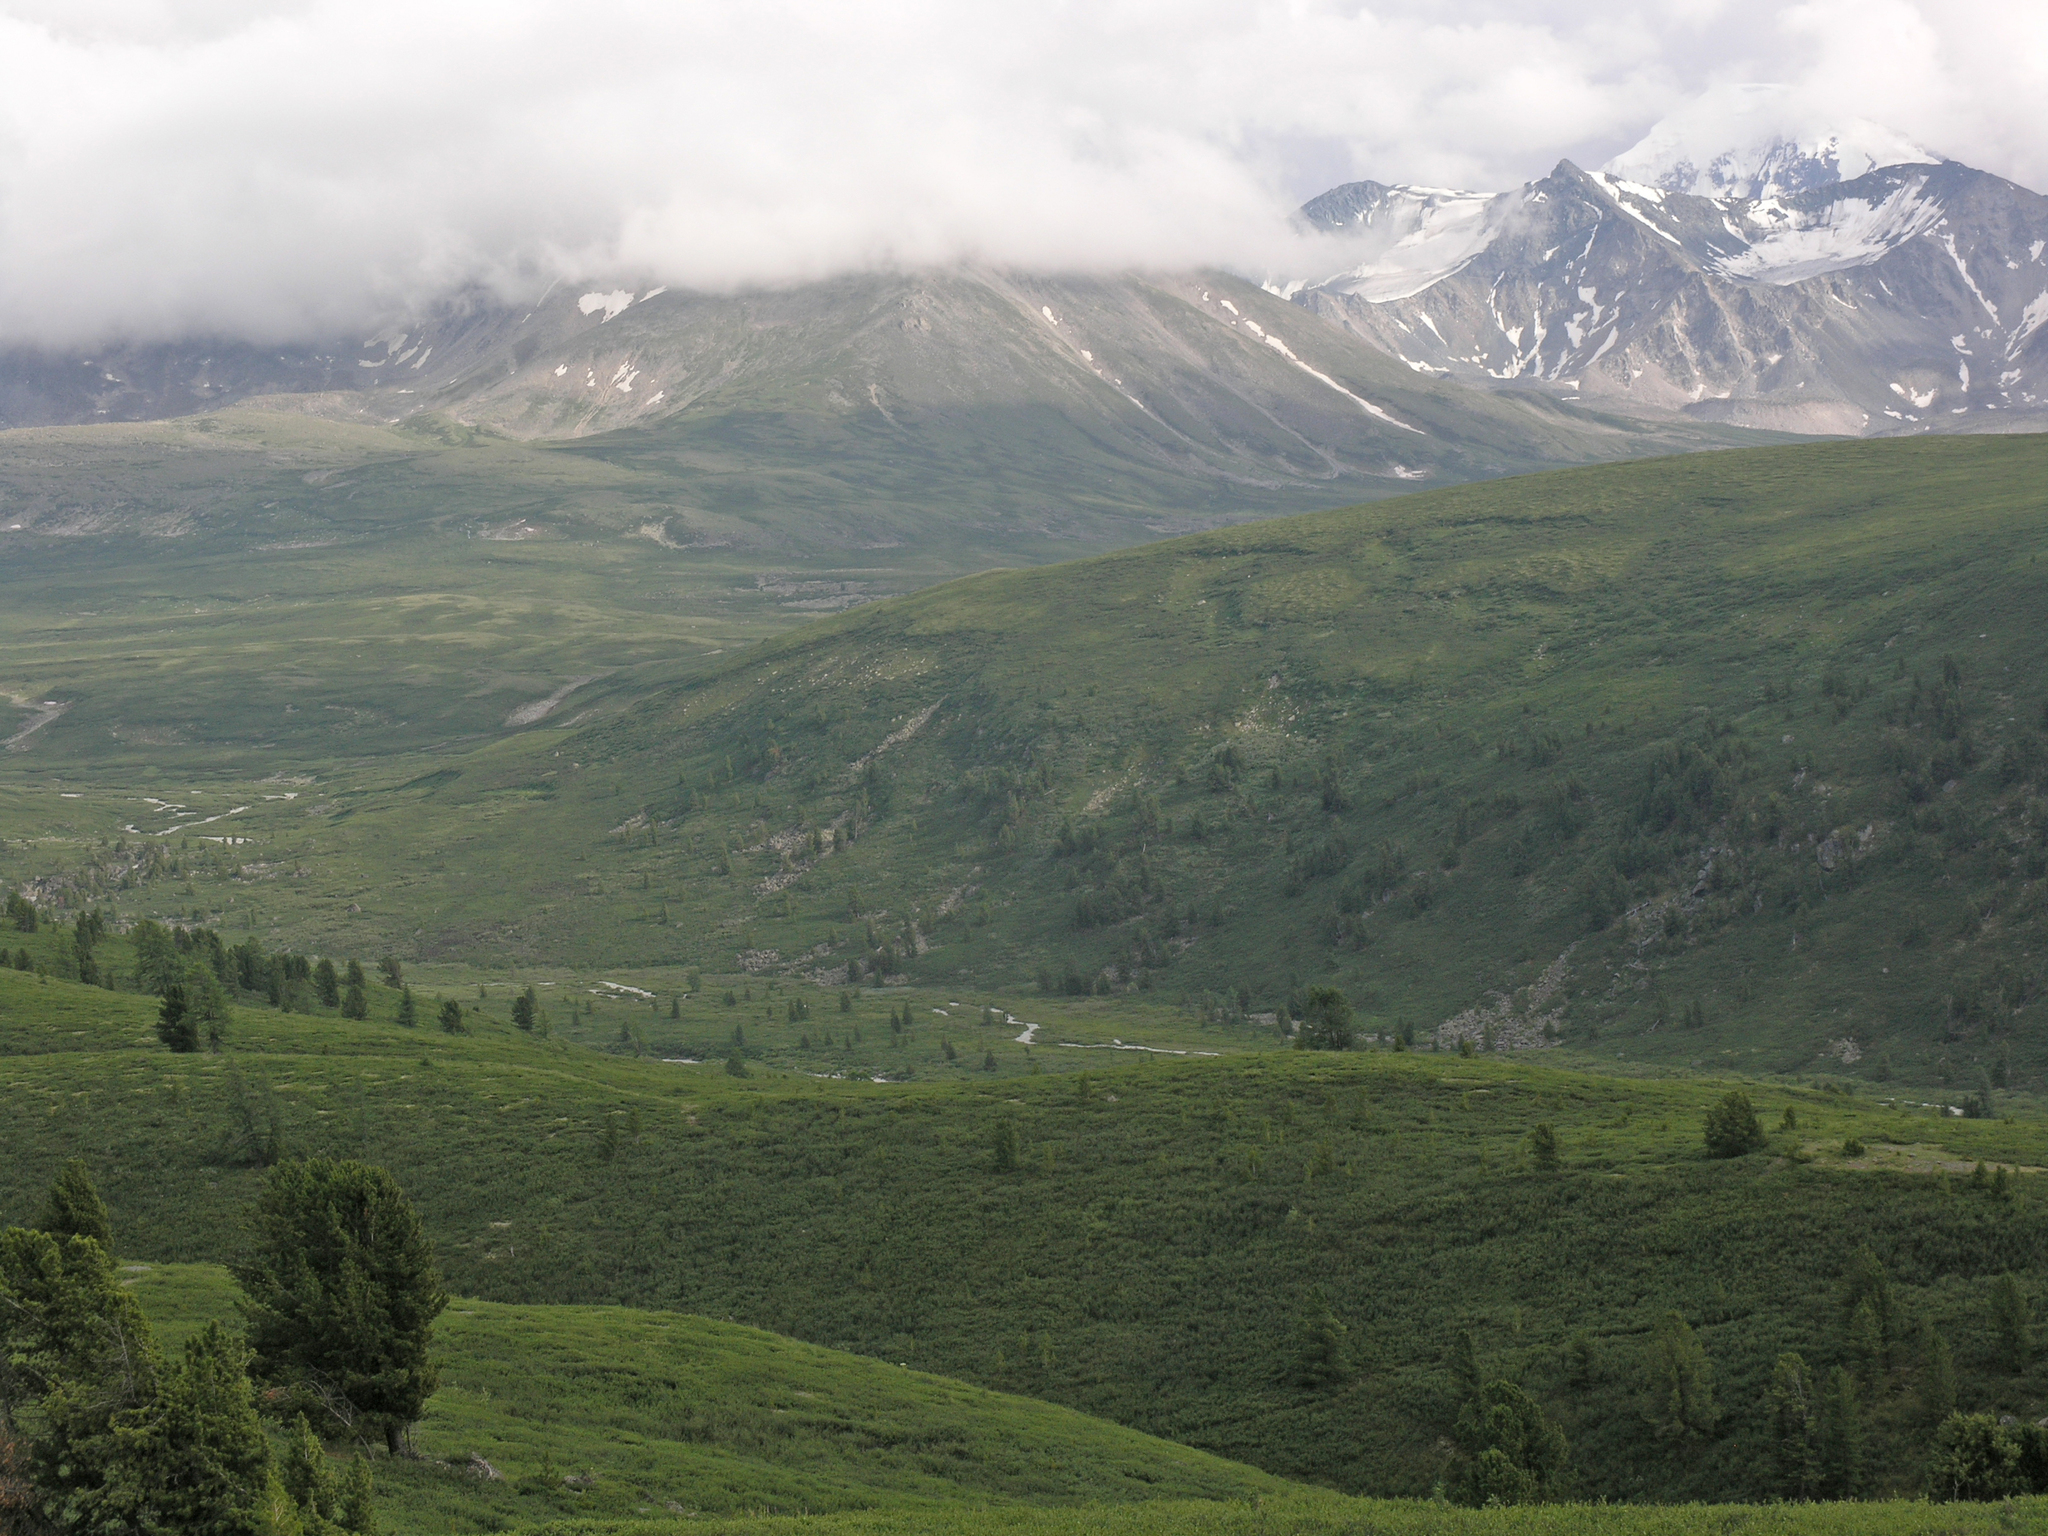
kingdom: Plantae
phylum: Tracheophyta
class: Pinopsida
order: Pinales
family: Pinaceae
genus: Pinus
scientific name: Pinus sibirica
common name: Siberian pine
